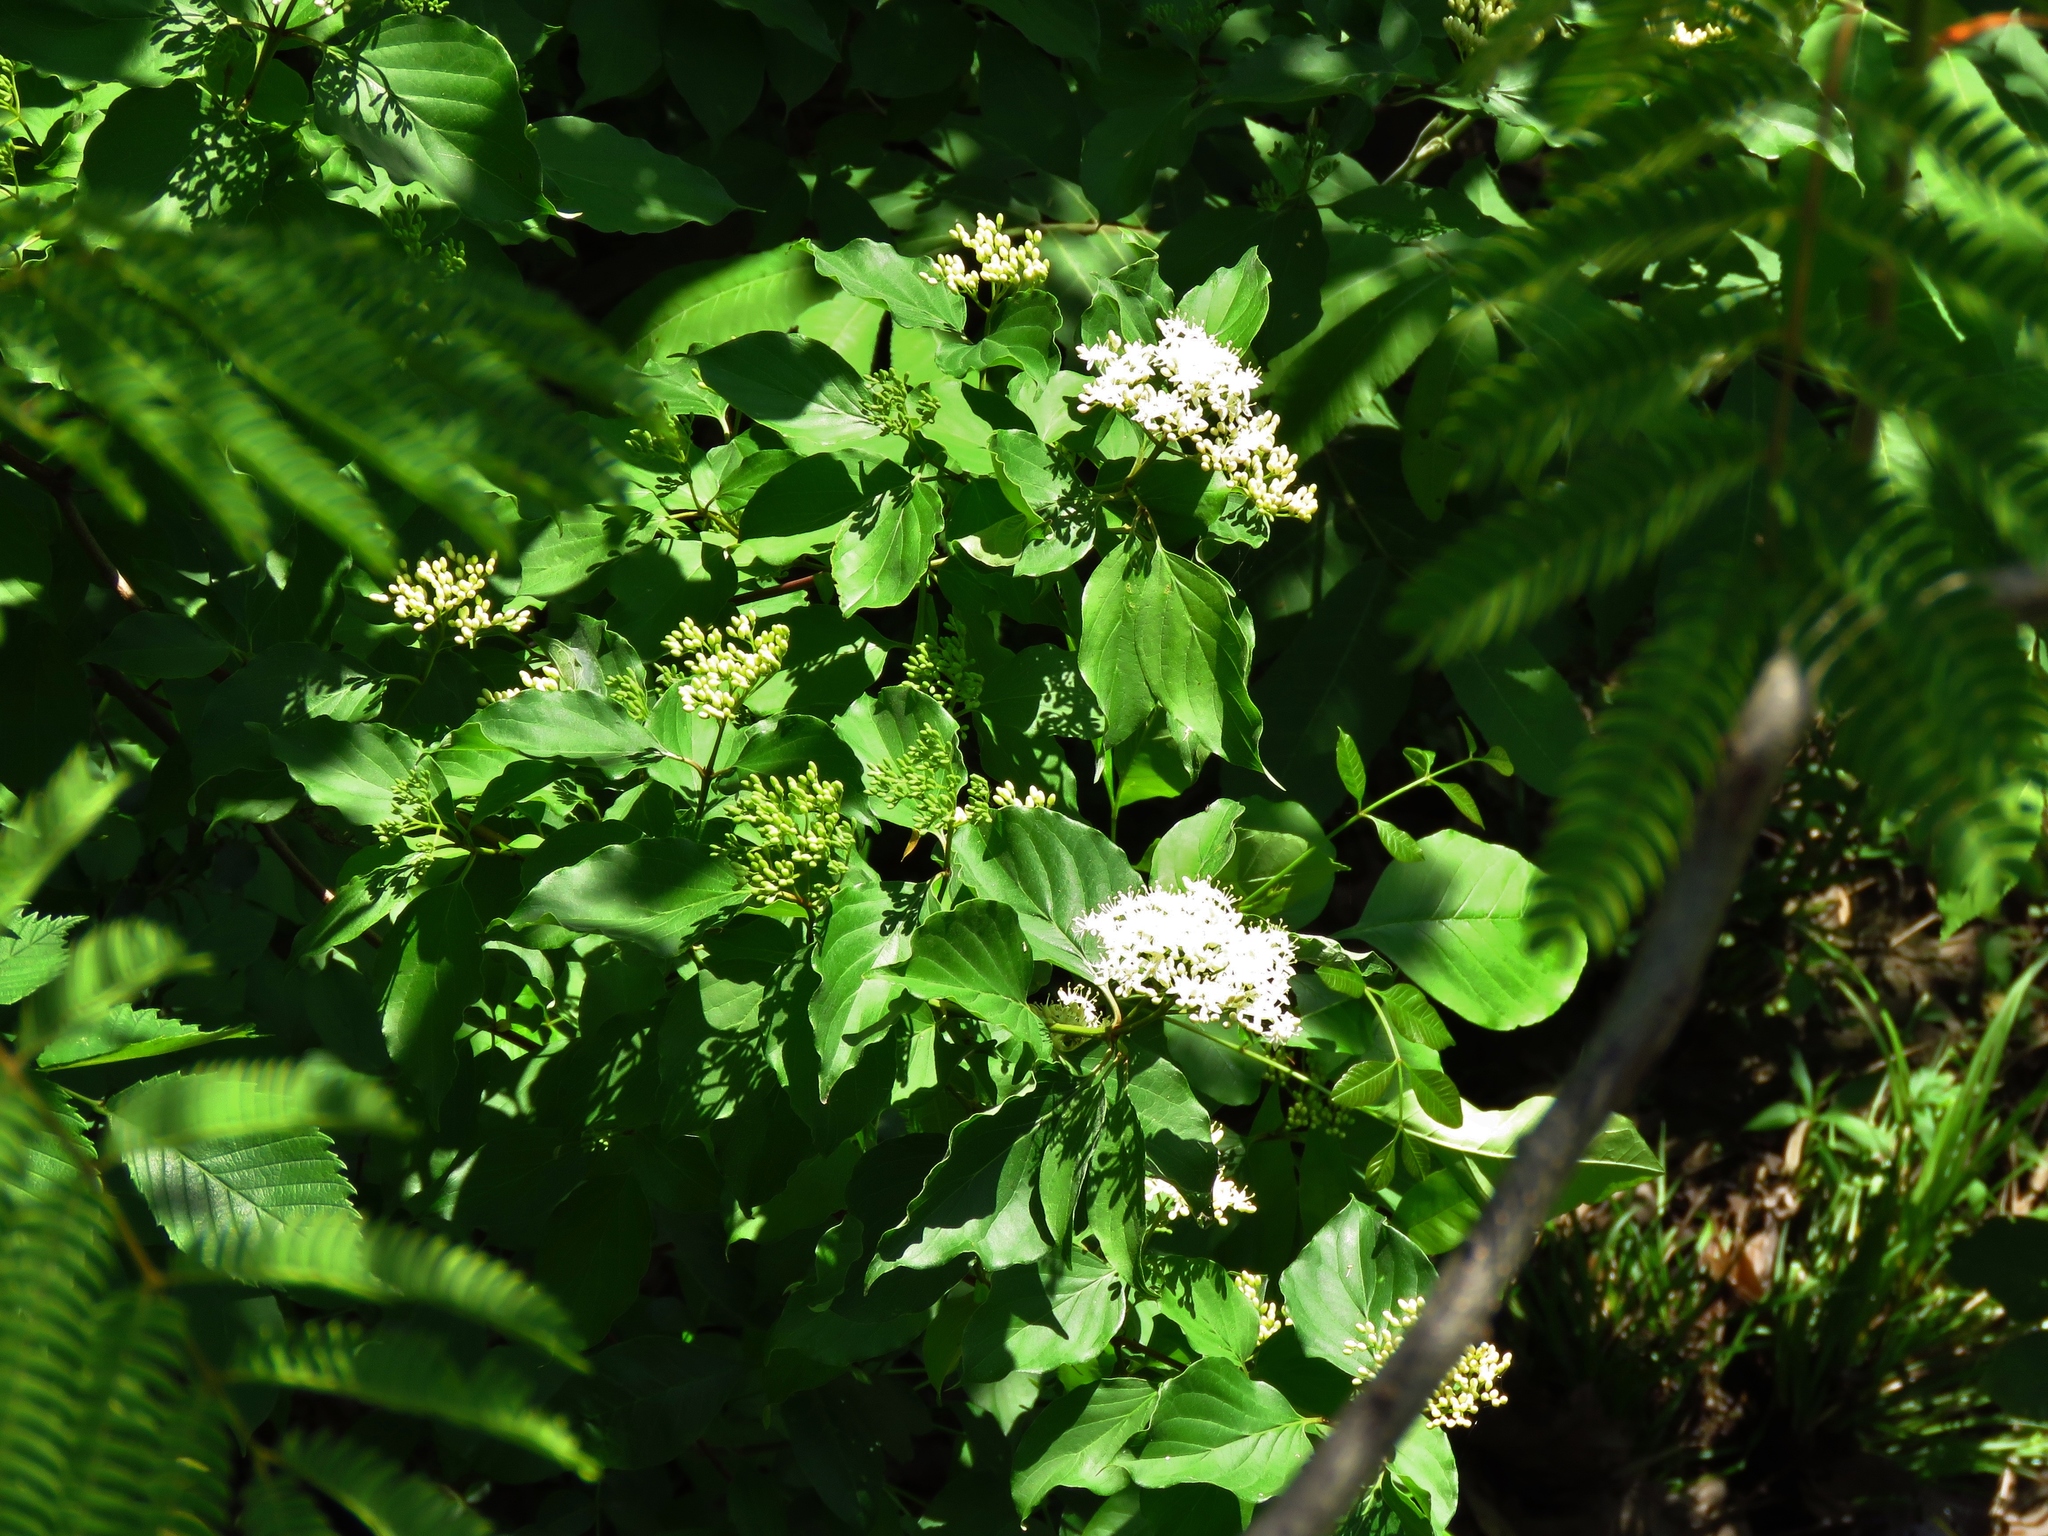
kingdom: Plantae
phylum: Tracheophyta
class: Magnoliopsida
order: Cornales
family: Cornaceae
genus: Cornus
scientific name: Cornus drummondii
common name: Rough-leaf dogwood
